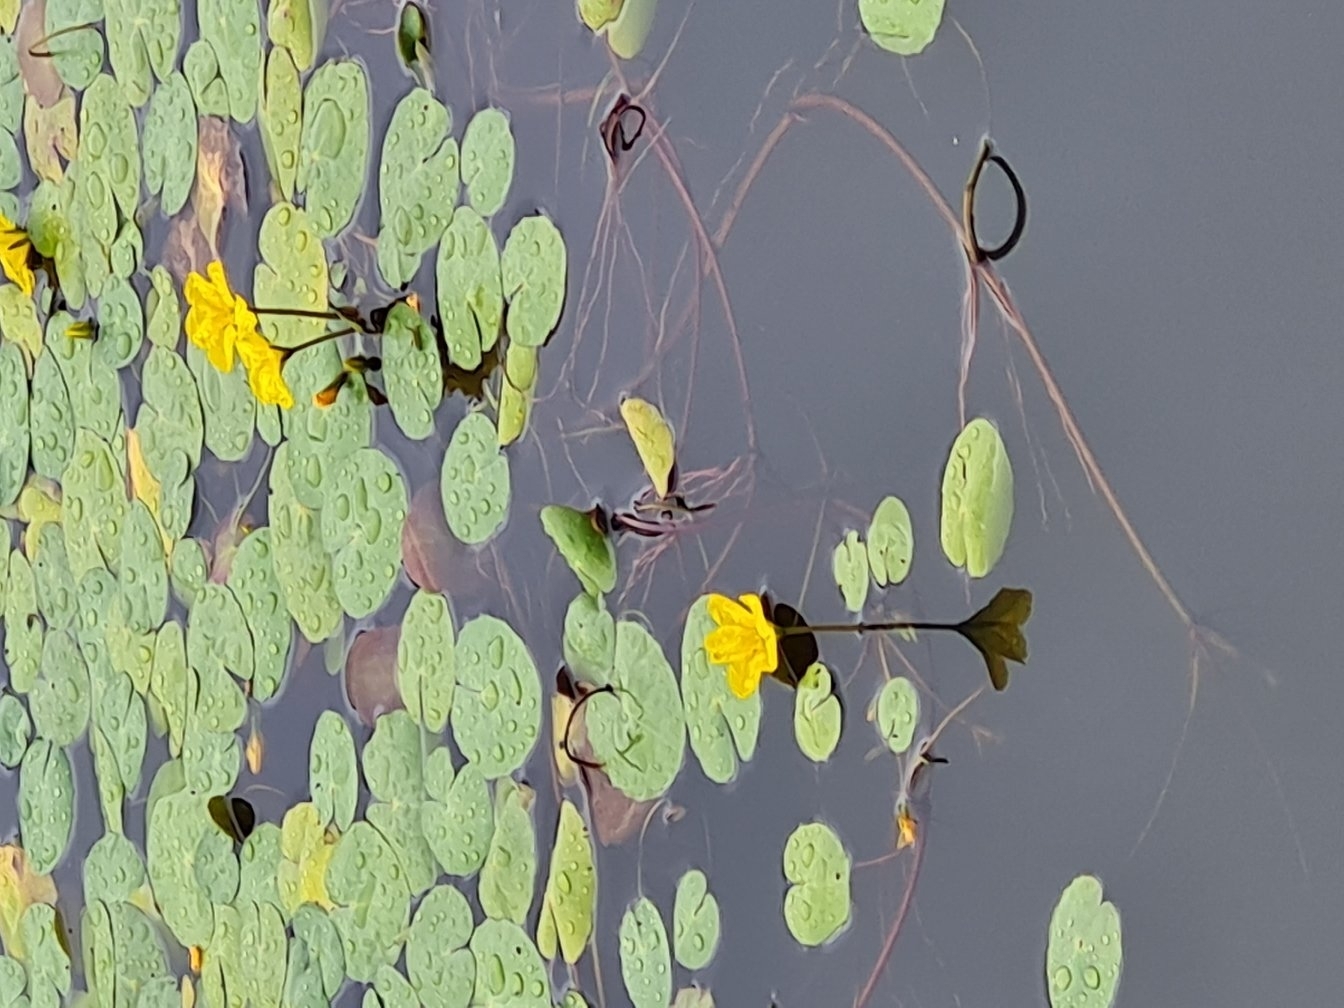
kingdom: Plantae
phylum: Tracheophyta
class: Magnoliopsida
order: Asterales
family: Menyanthaceae
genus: Nymphoides
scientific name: Nymphoides peltata
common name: Fringed water-lily
